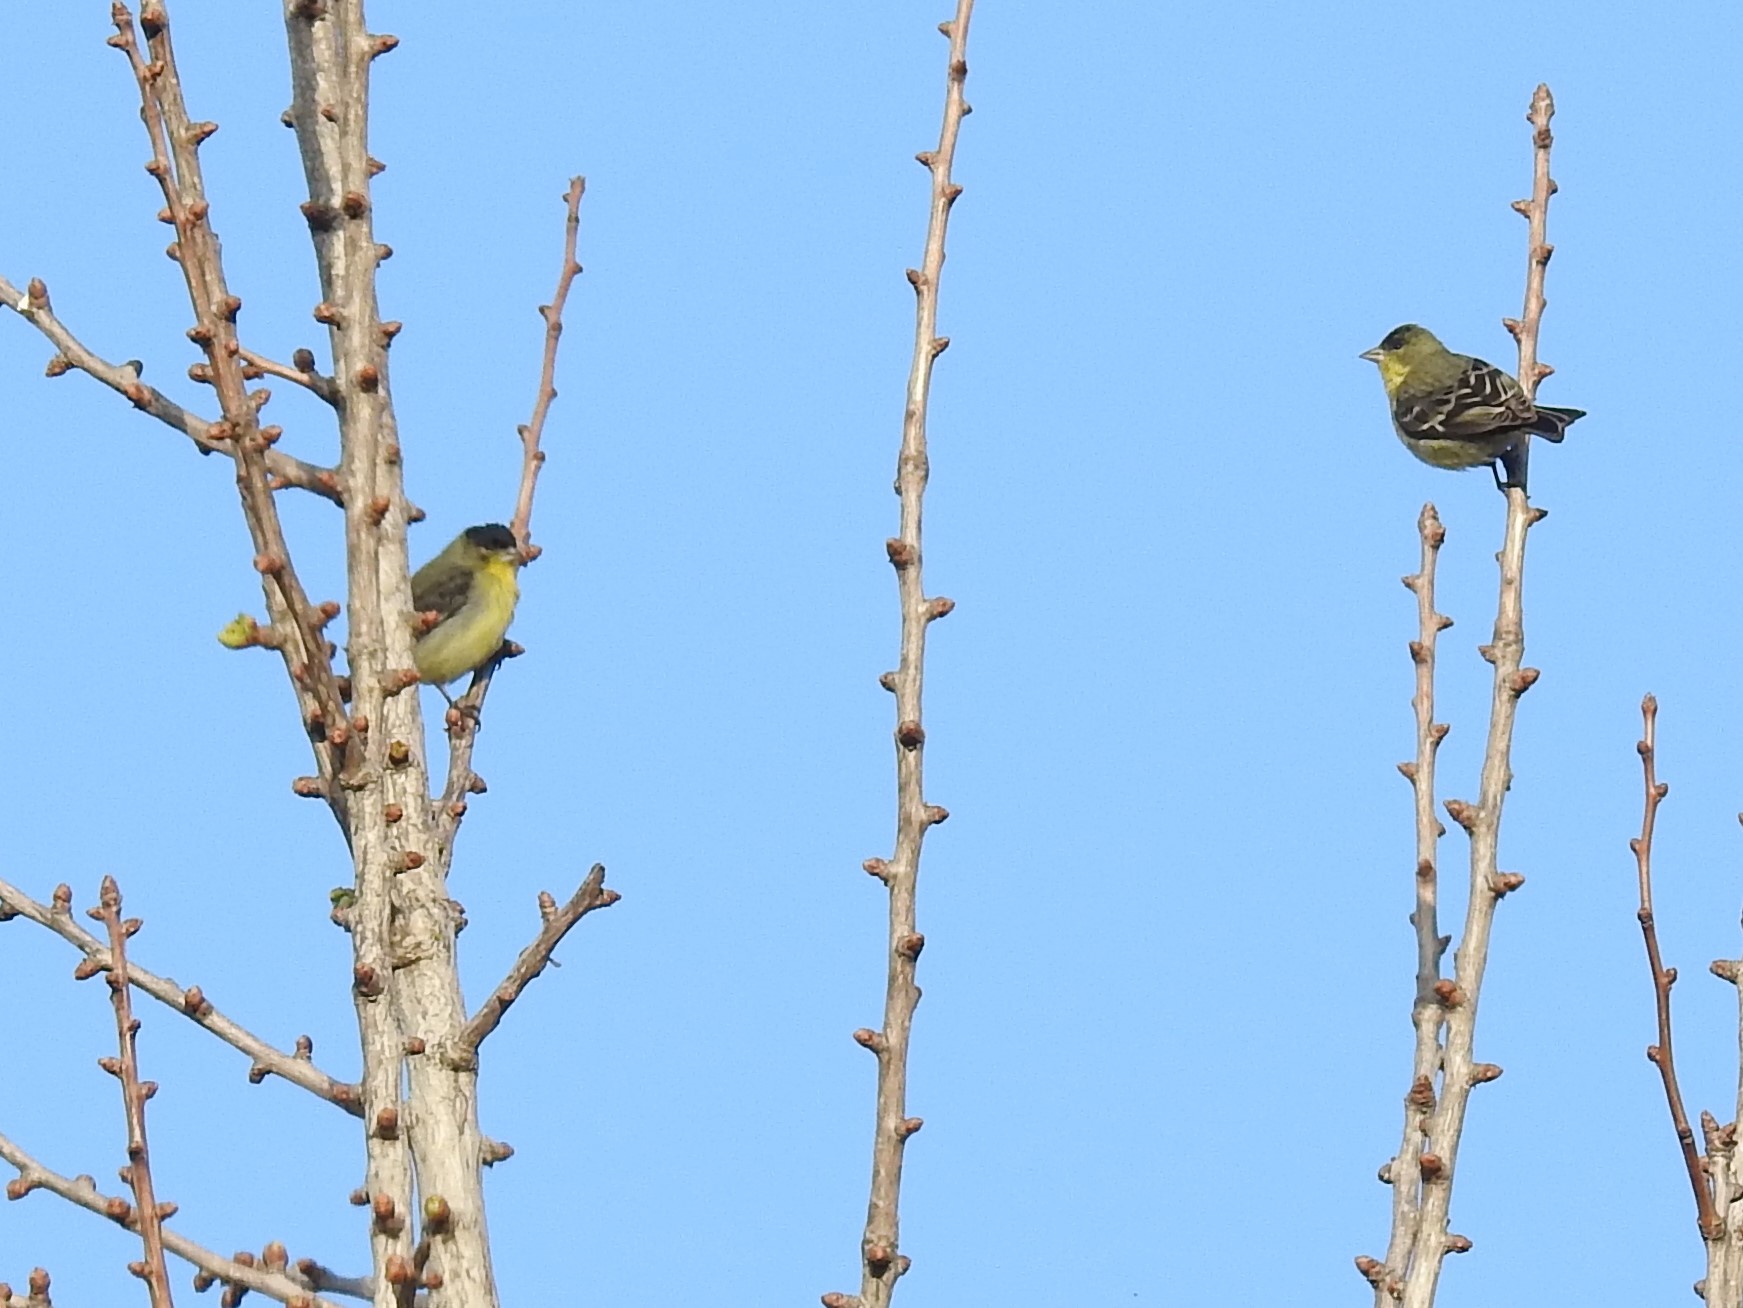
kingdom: Animalia
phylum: Chordata
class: Aves
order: Passeriformes
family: Fringillidae
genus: Spinus
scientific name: Spinus psaltria
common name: Lesser goldfinch
